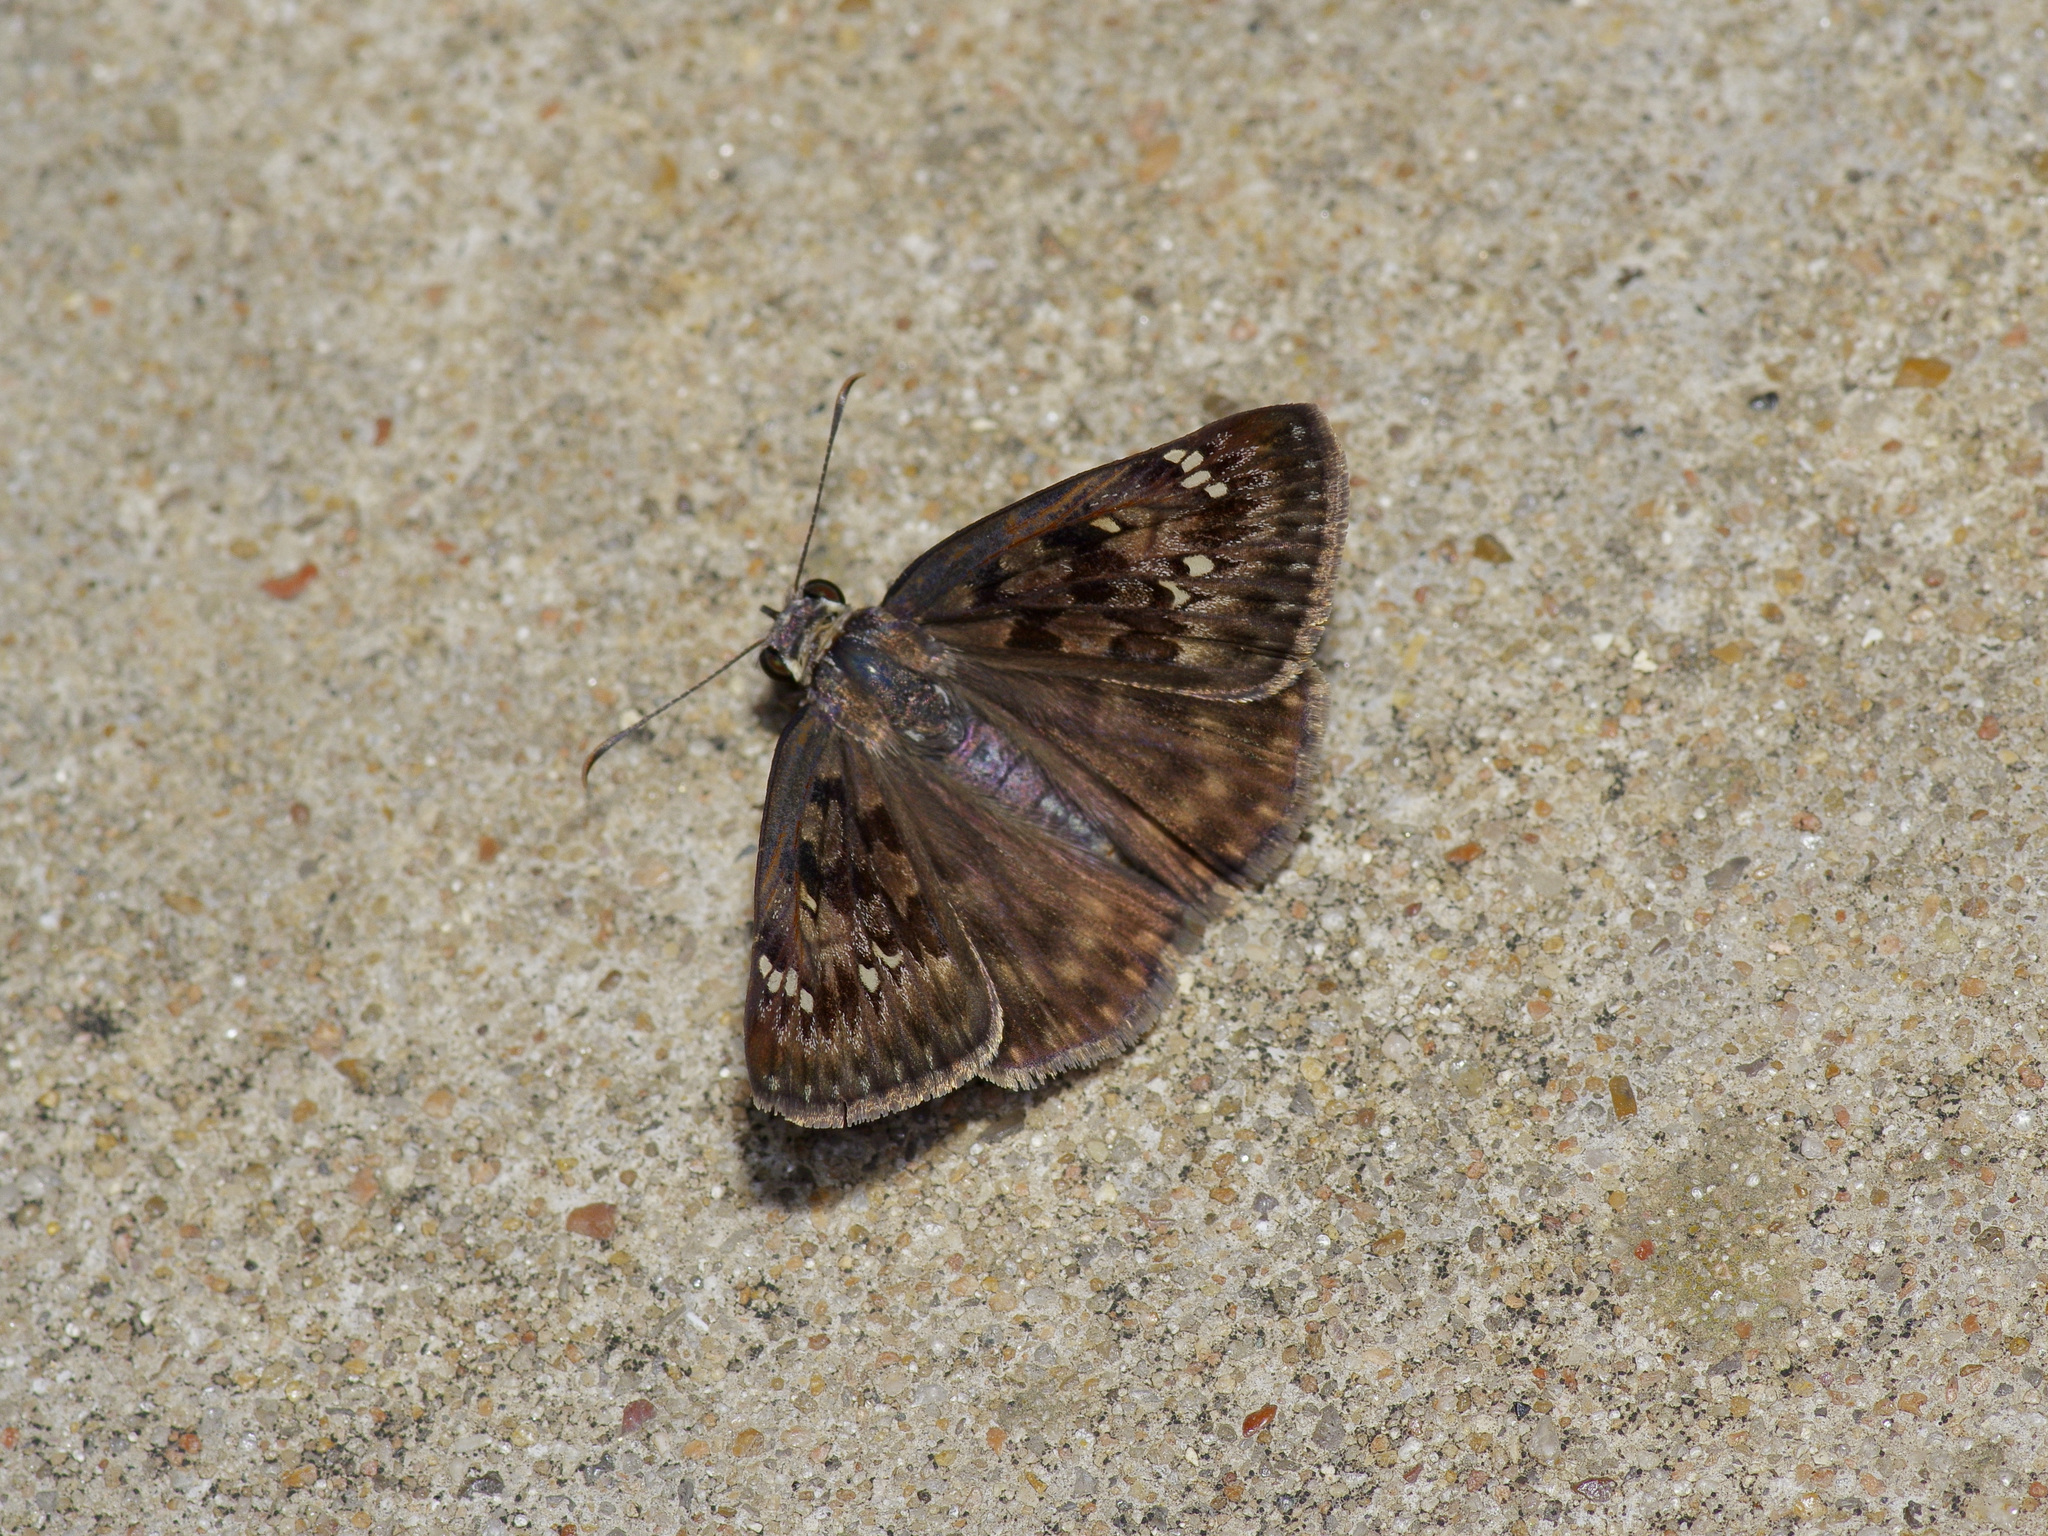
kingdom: Animalia
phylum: Arthropoda
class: Insecta
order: Lepidoptera
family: Hesperiidae
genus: Erynnis
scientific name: Erynnis horatius
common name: Horace's duskywing
